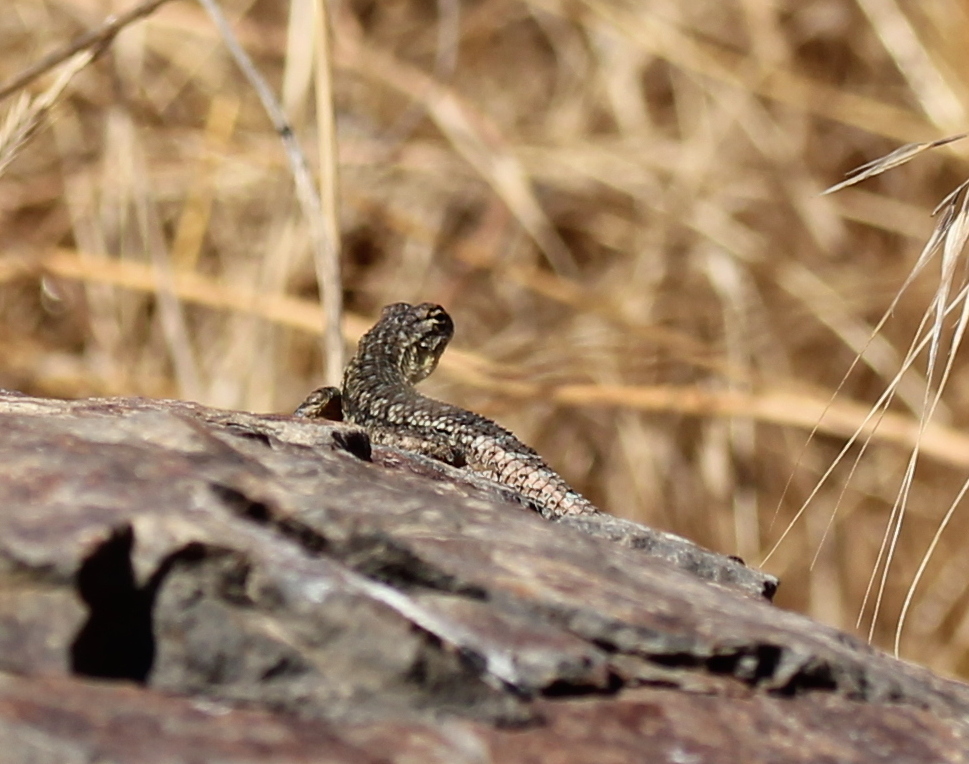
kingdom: Animalia
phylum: Chordata
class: Squamata
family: Phrynosomatidae
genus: Sceloporus
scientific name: Sceloporus occidentalis
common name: Western fence lizard
